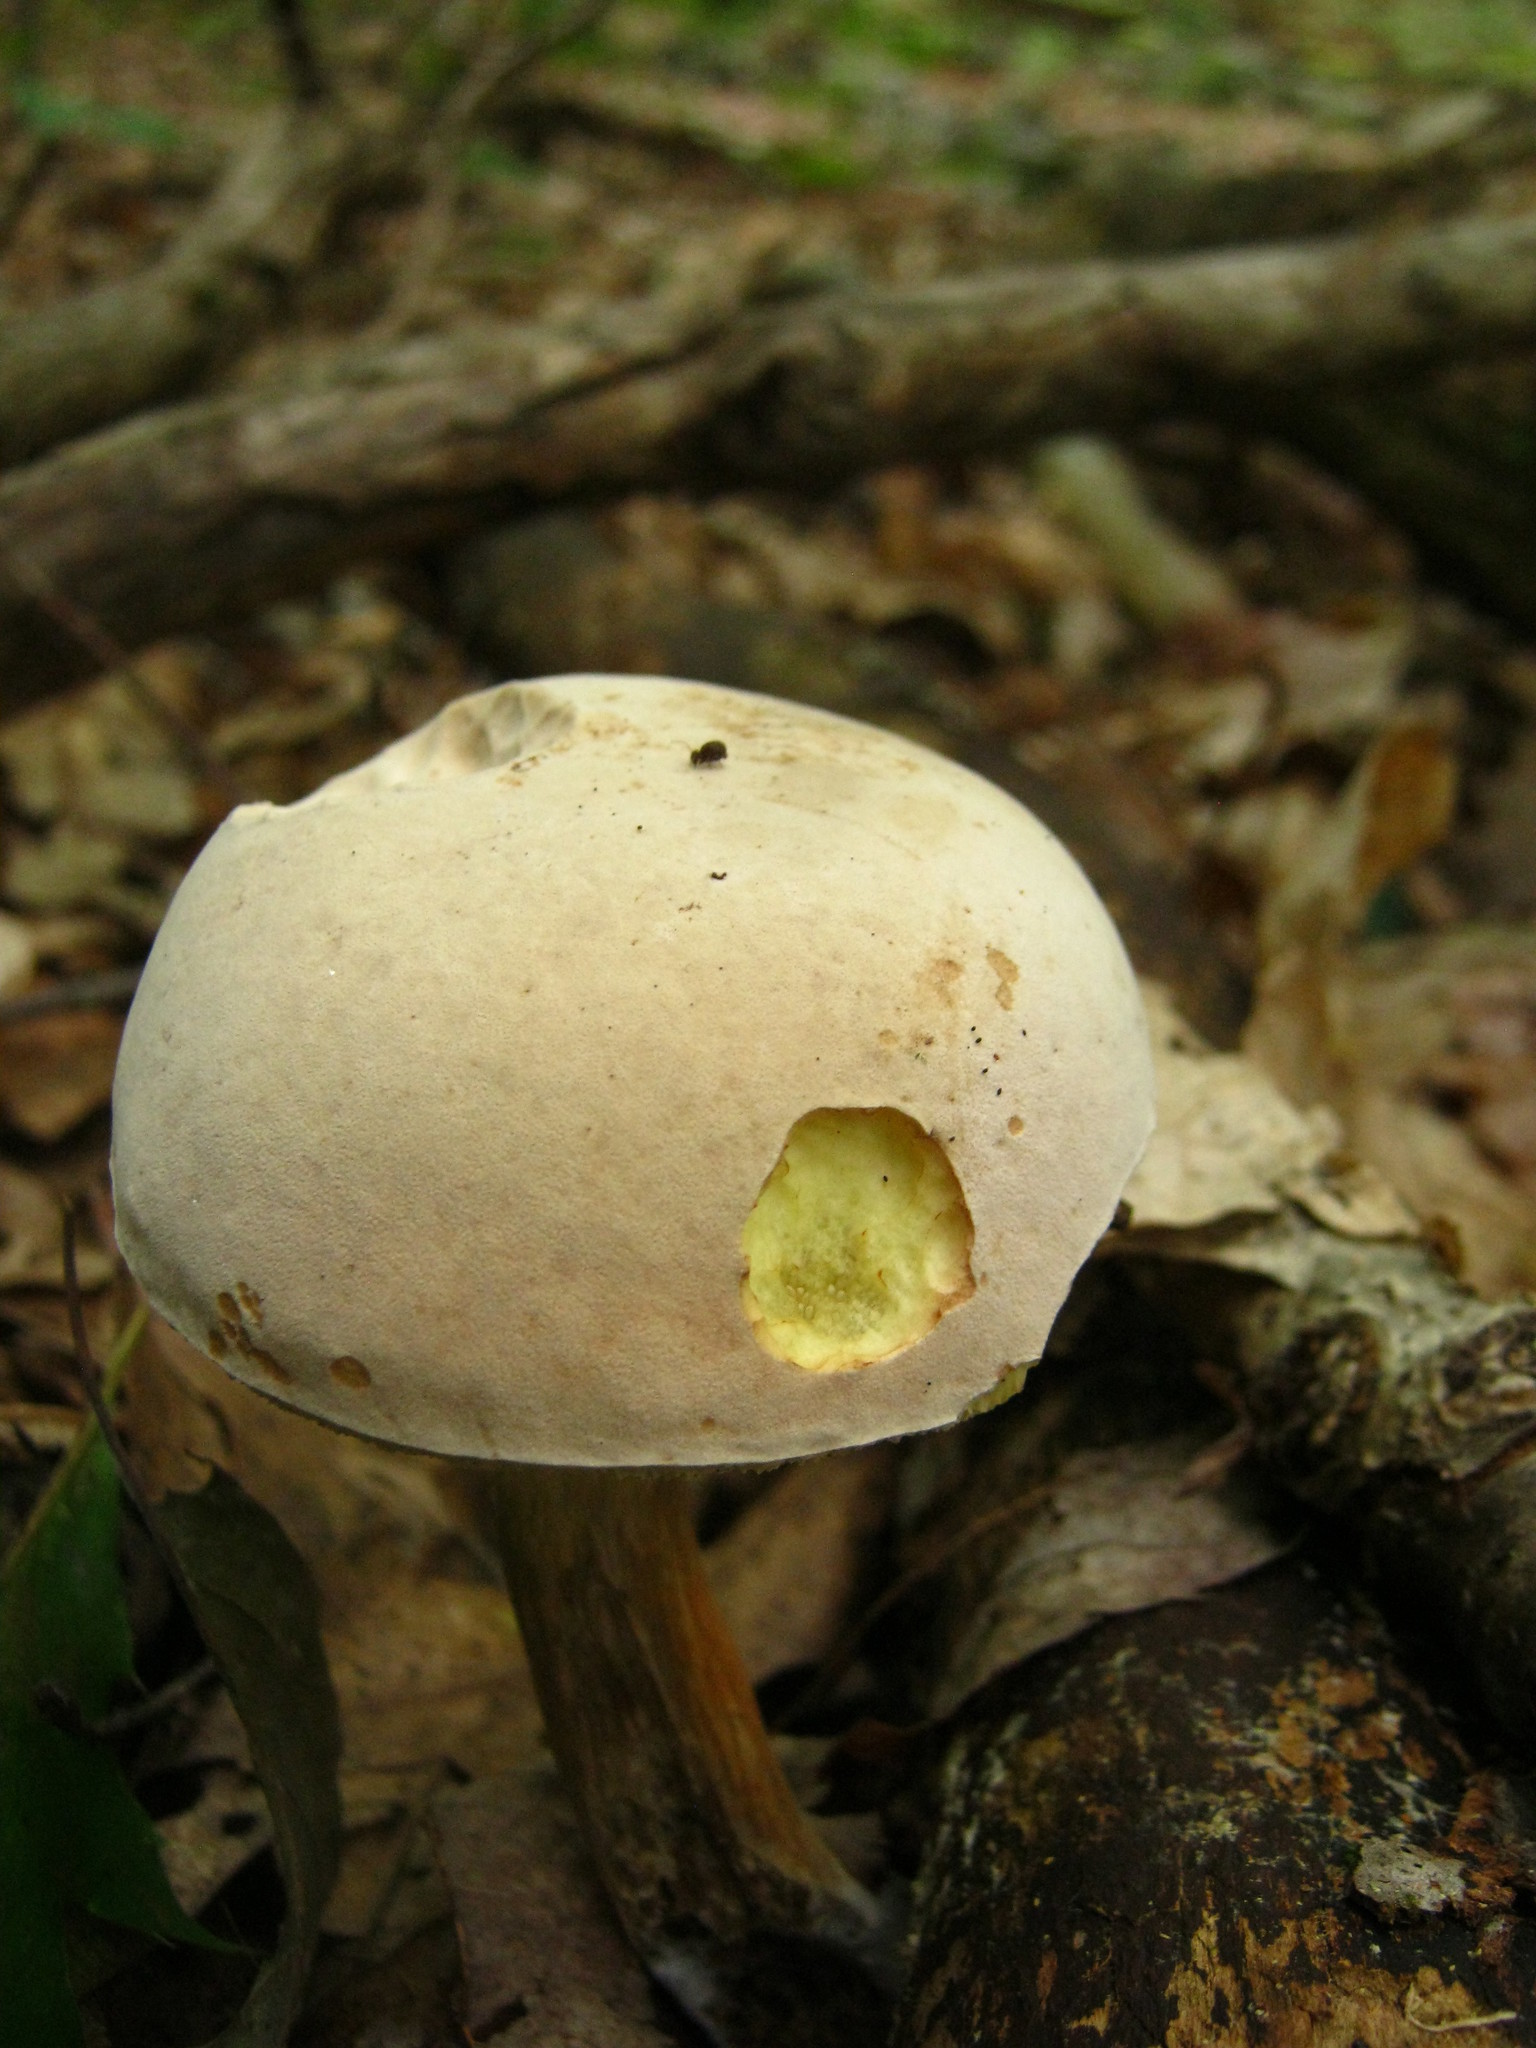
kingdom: Fungi
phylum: Basidiomycota
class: Agaricomycetes
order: Boletales
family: Boletaceae
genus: Imleria
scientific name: Imleria pallida
